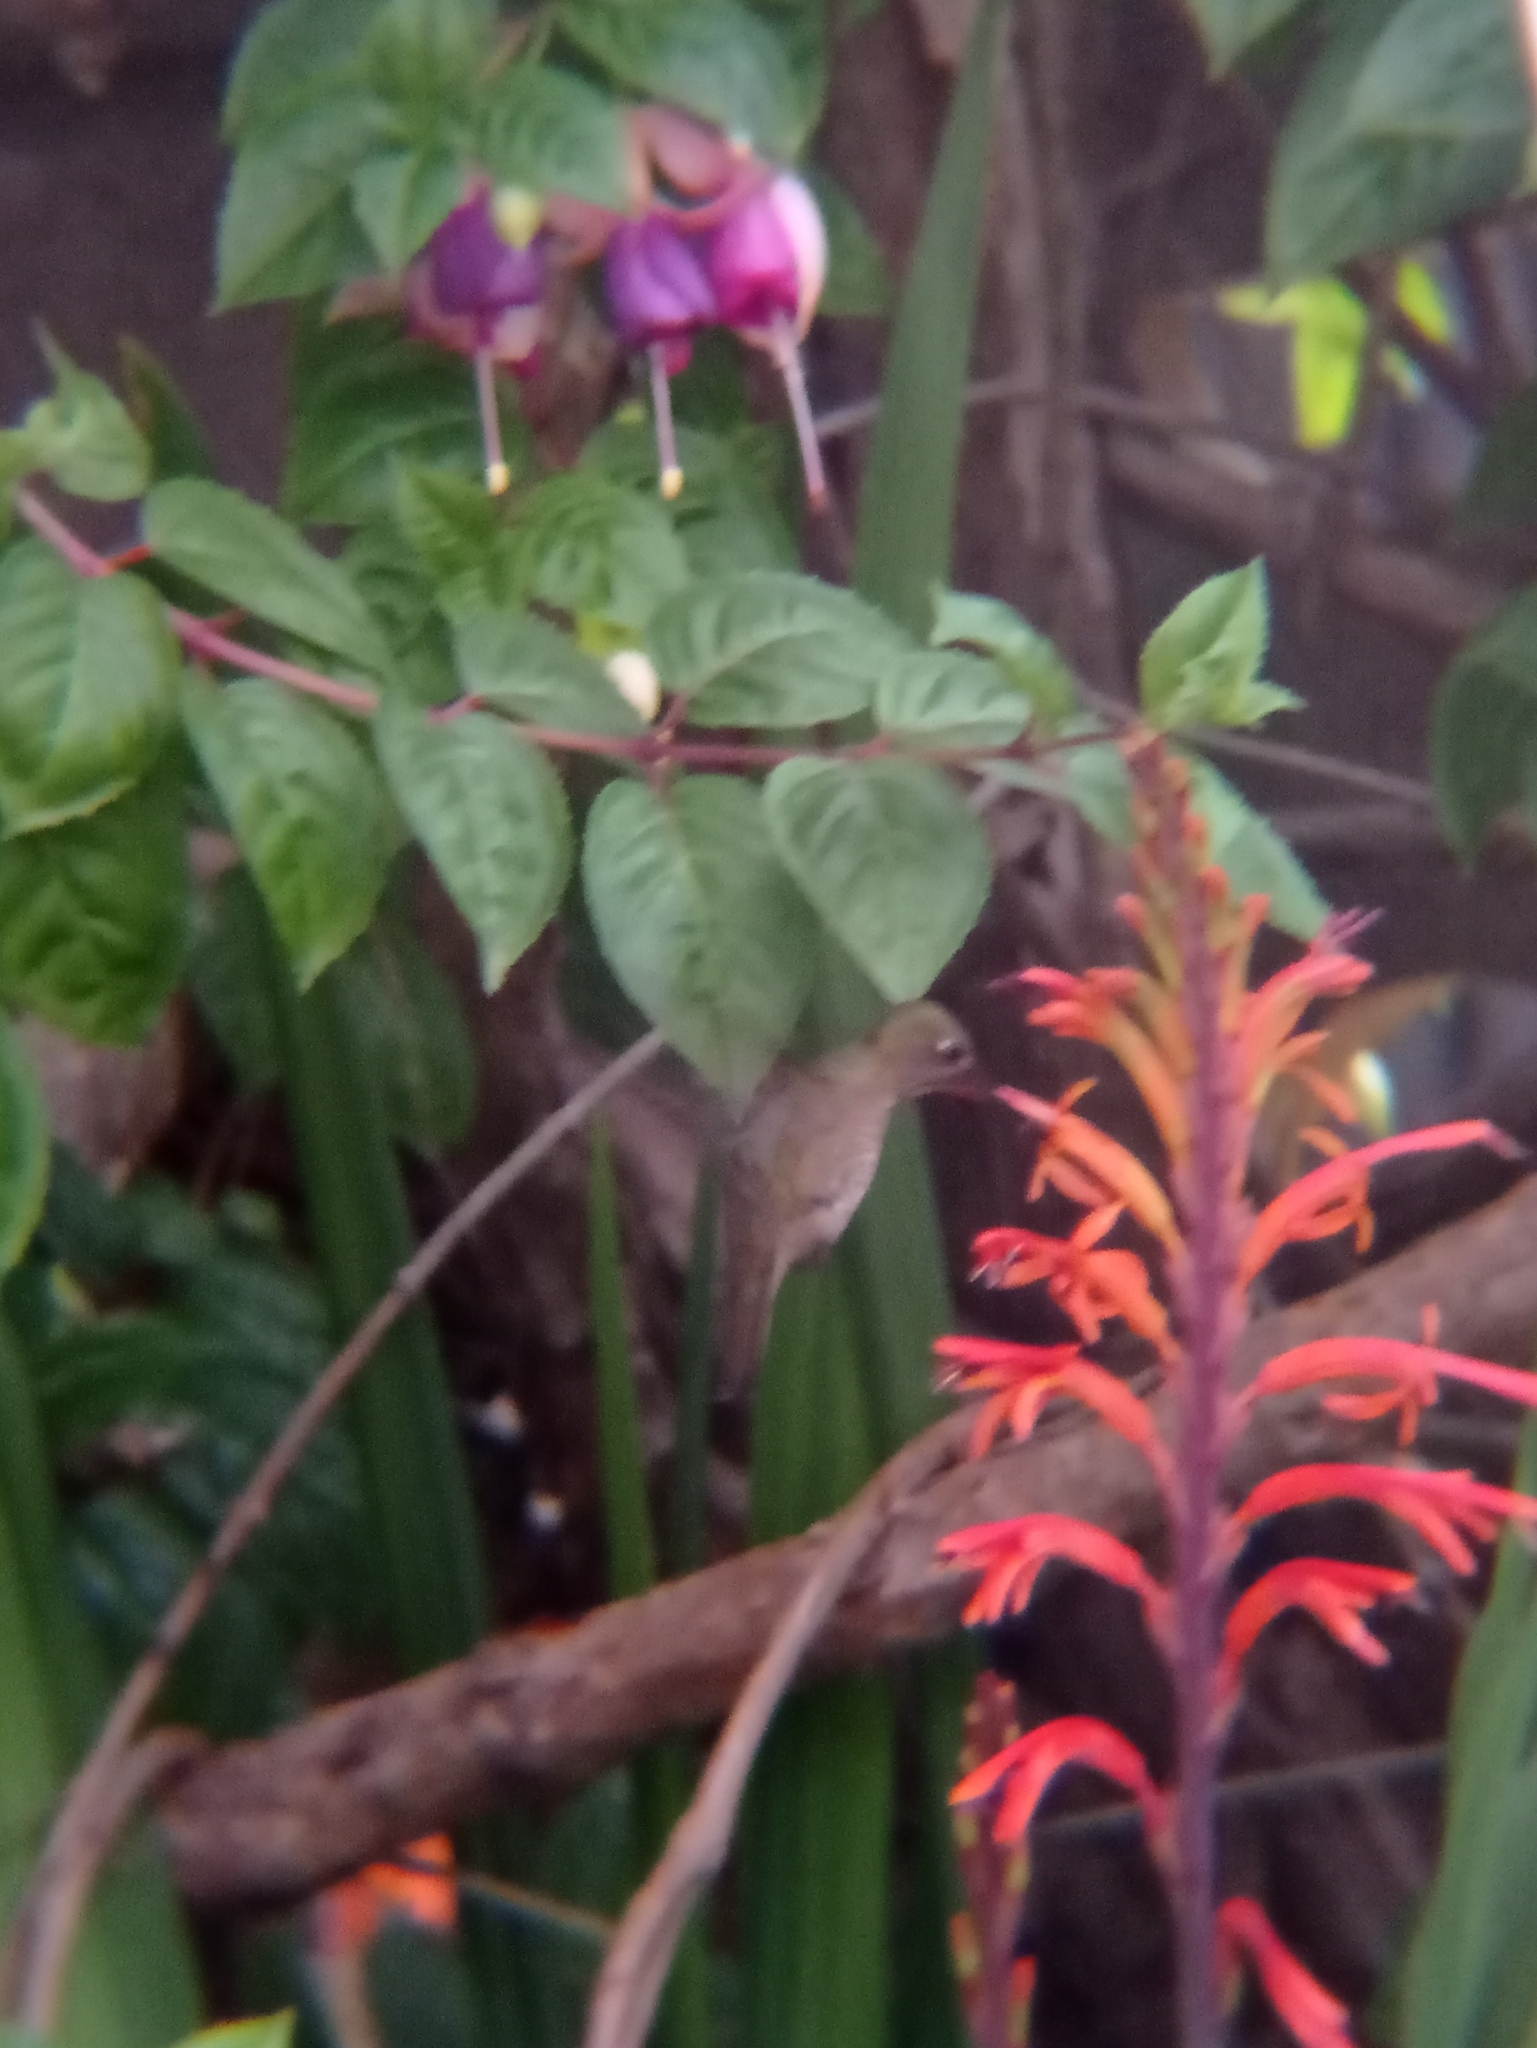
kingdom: Animalia
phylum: Chordata
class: Aves
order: Apodiformes
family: Trochilidae
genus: Sephanoides
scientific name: Sephanoides sephaniodes
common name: Green-backed firecrown
